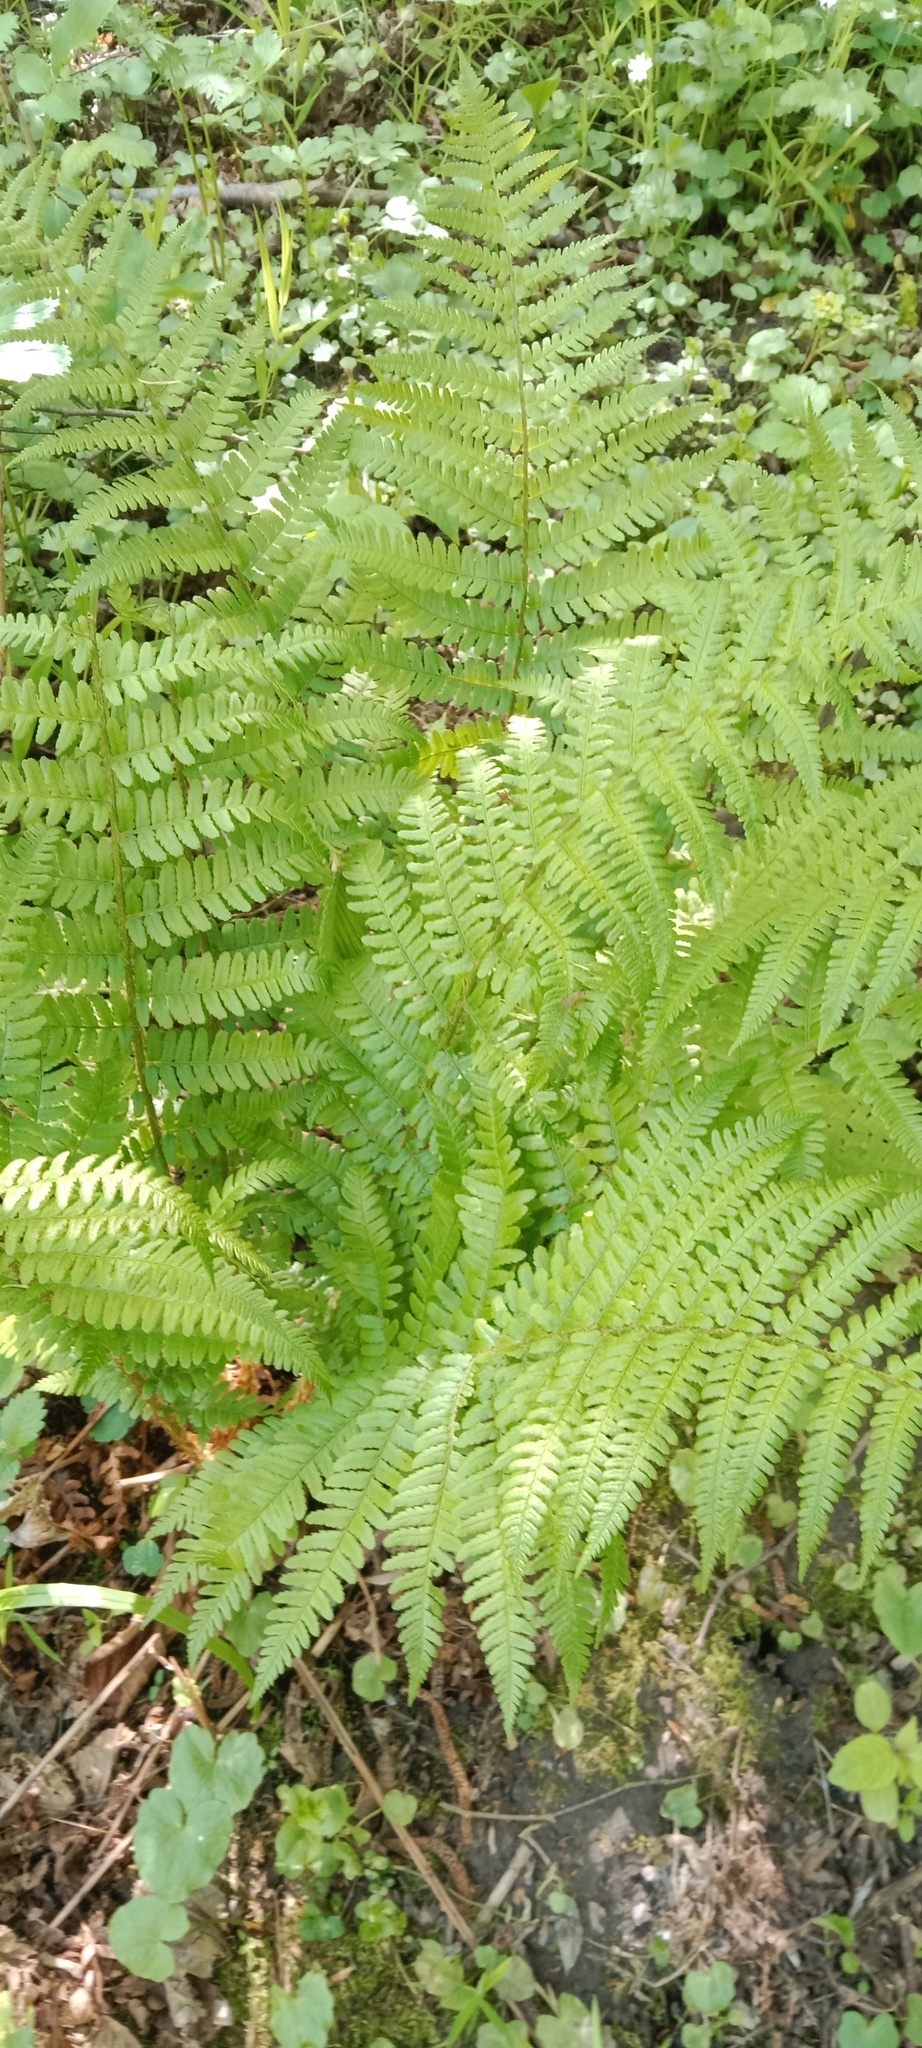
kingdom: Plantae
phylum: Tracheophyta
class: Polypodiopsida
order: Polypodiales
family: Dryopteridaceae
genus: Dryopteris
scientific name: Dryopteris filix-mas
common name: Male fern
